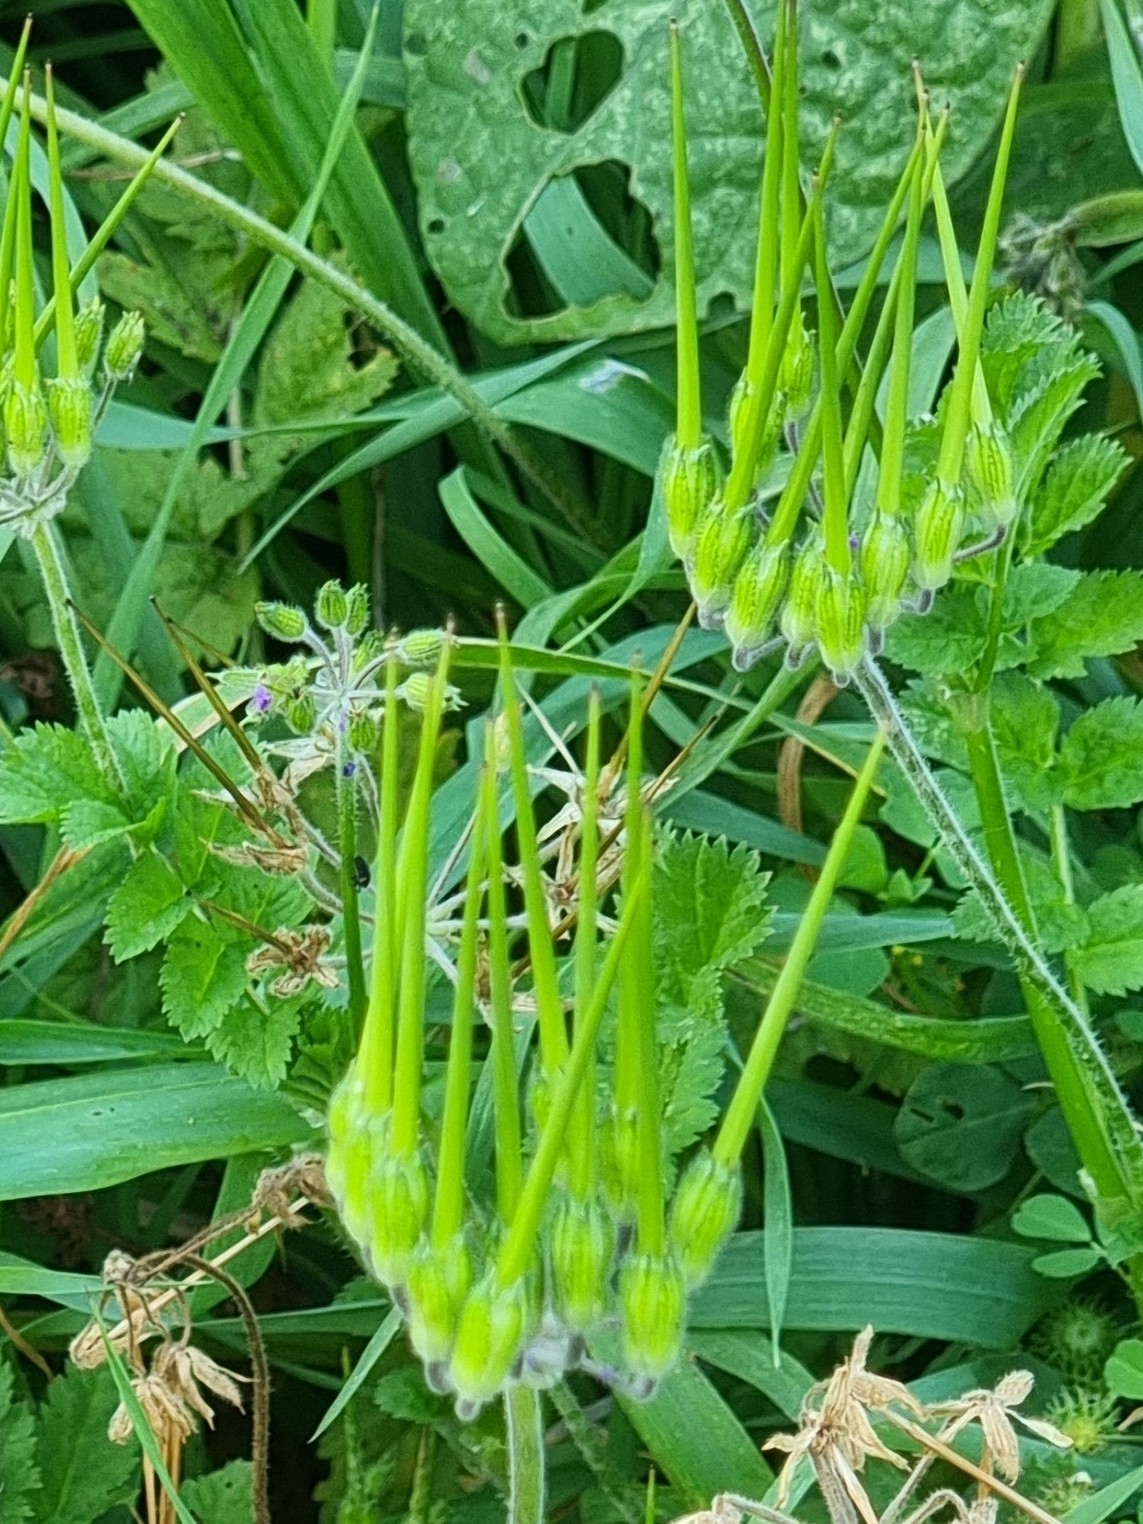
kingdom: Plantae
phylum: Tracheophyta
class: Magnoliopsida
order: Geraniales
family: Geraniaceae
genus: Erodium
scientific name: Erodium moschatum
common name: Musk stork's-bill
